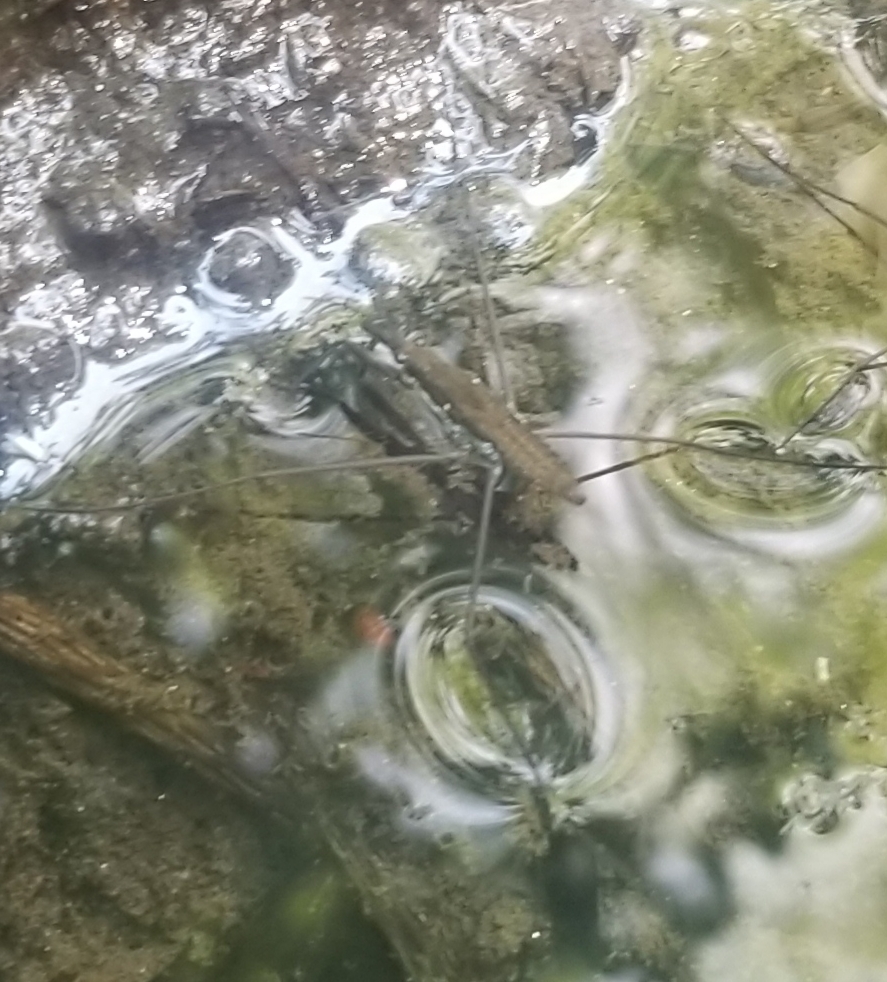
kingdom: Animalia
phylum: Arthropoda
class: Insecta
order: Hemiptera
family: Gerridae
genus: Aquarius
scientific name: Aquarius
